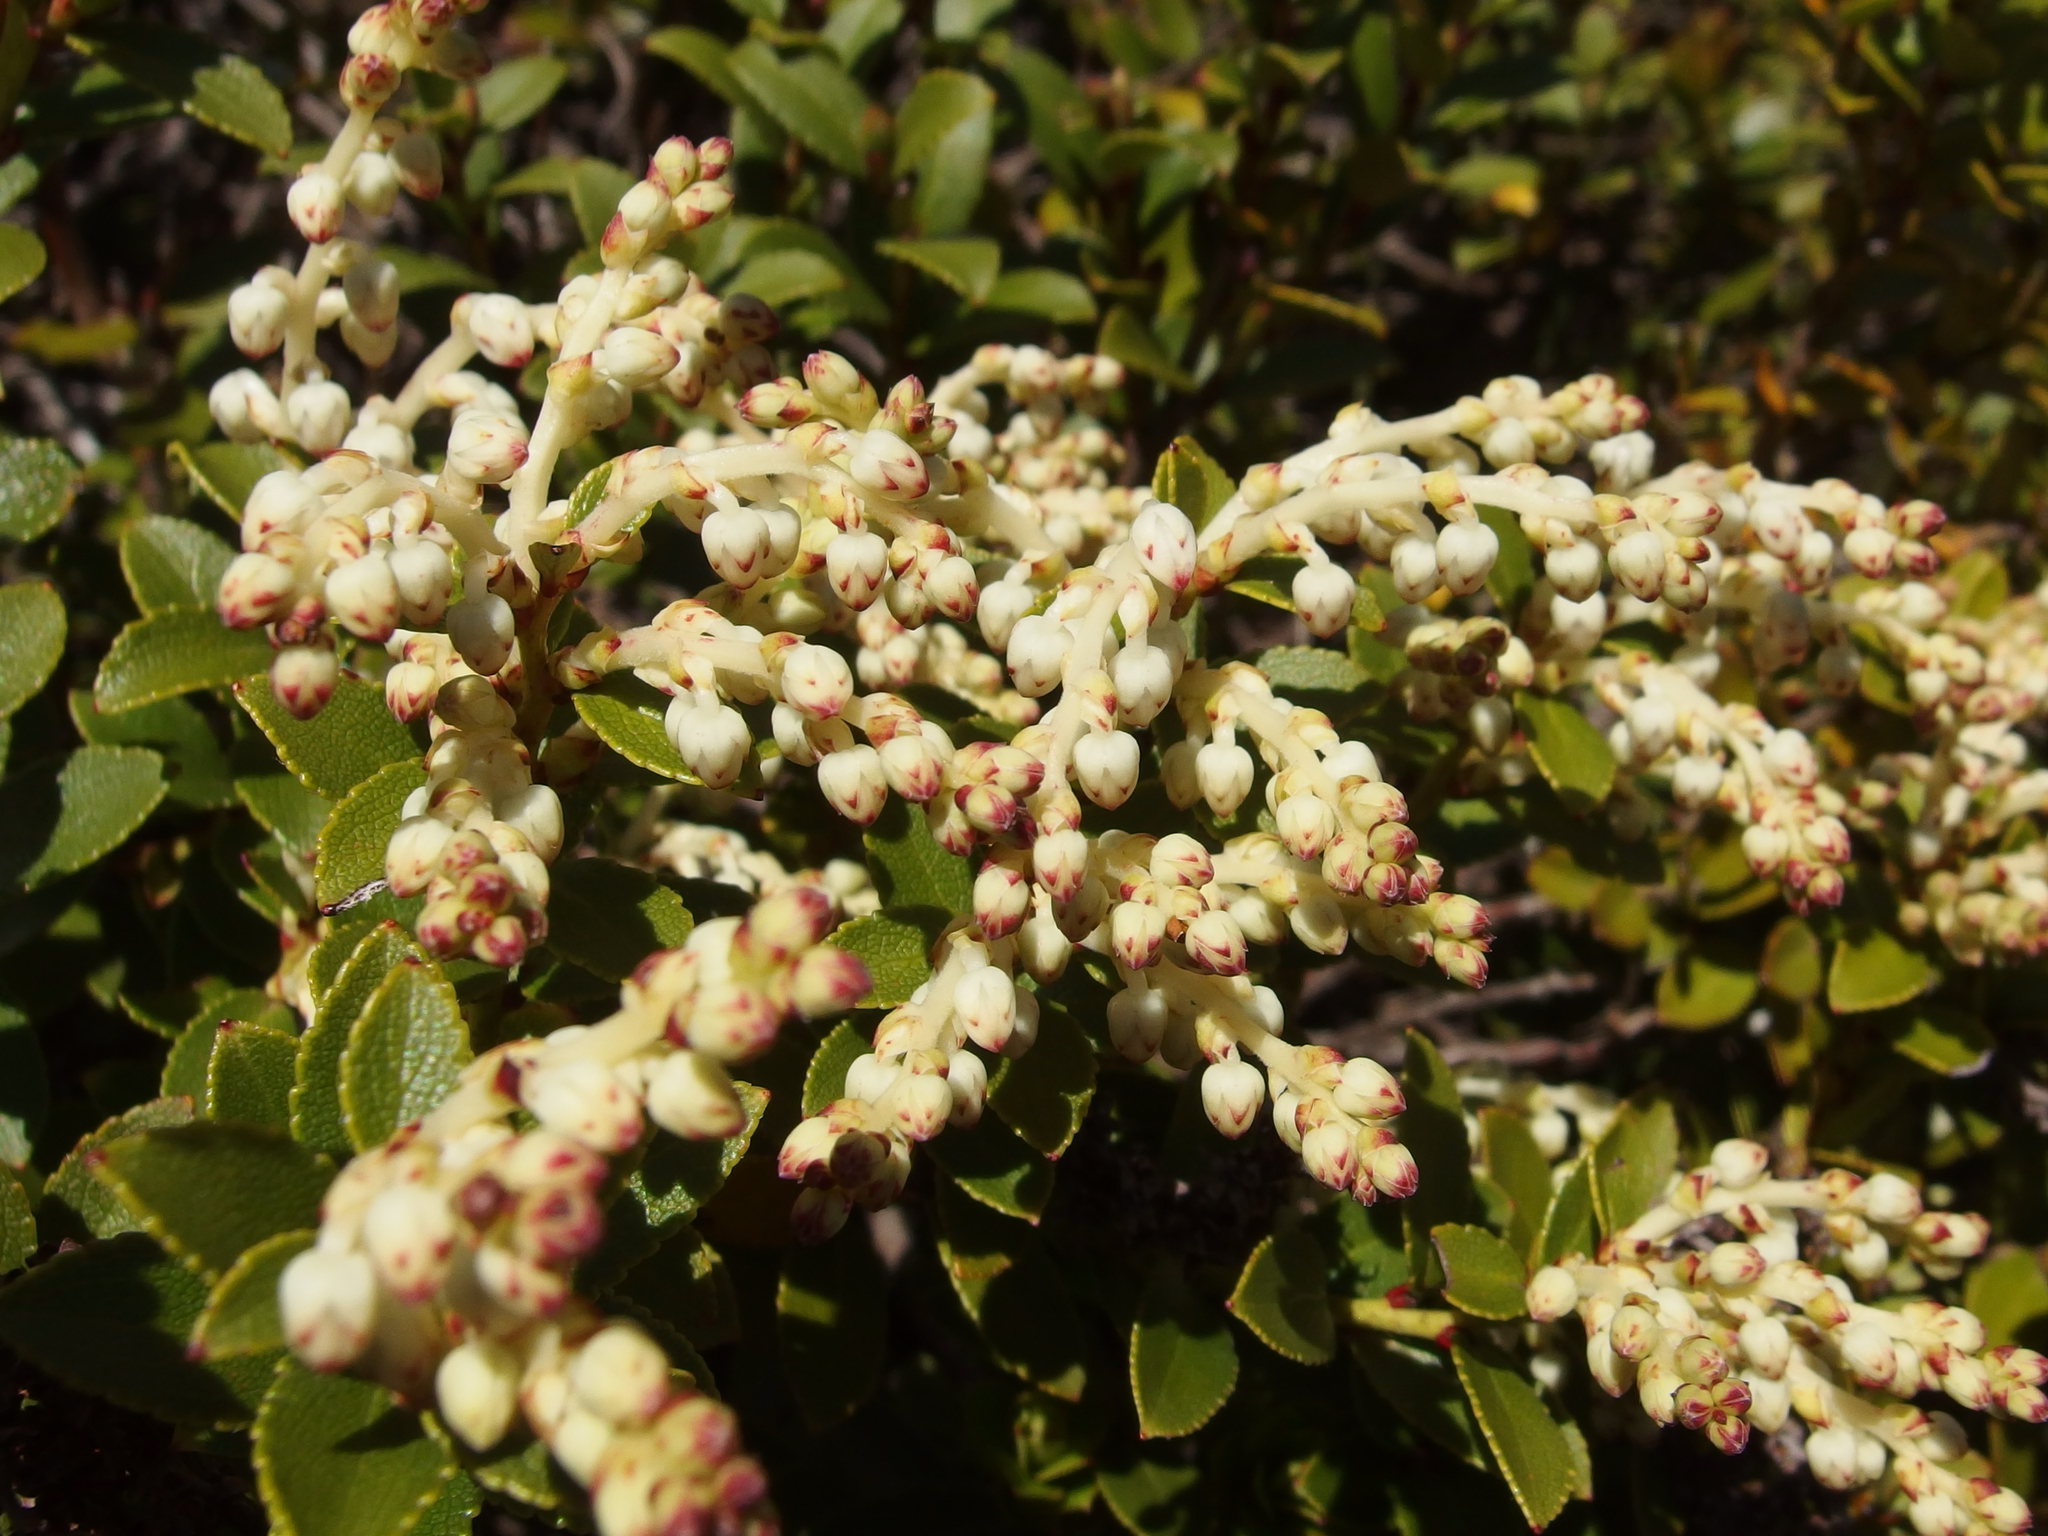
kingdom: Plantae
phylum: Tracheophyta
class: Magnoliopsida
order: Ericales
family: Ericaceae
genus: Gaultheria
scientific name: Gaultheria crassa
